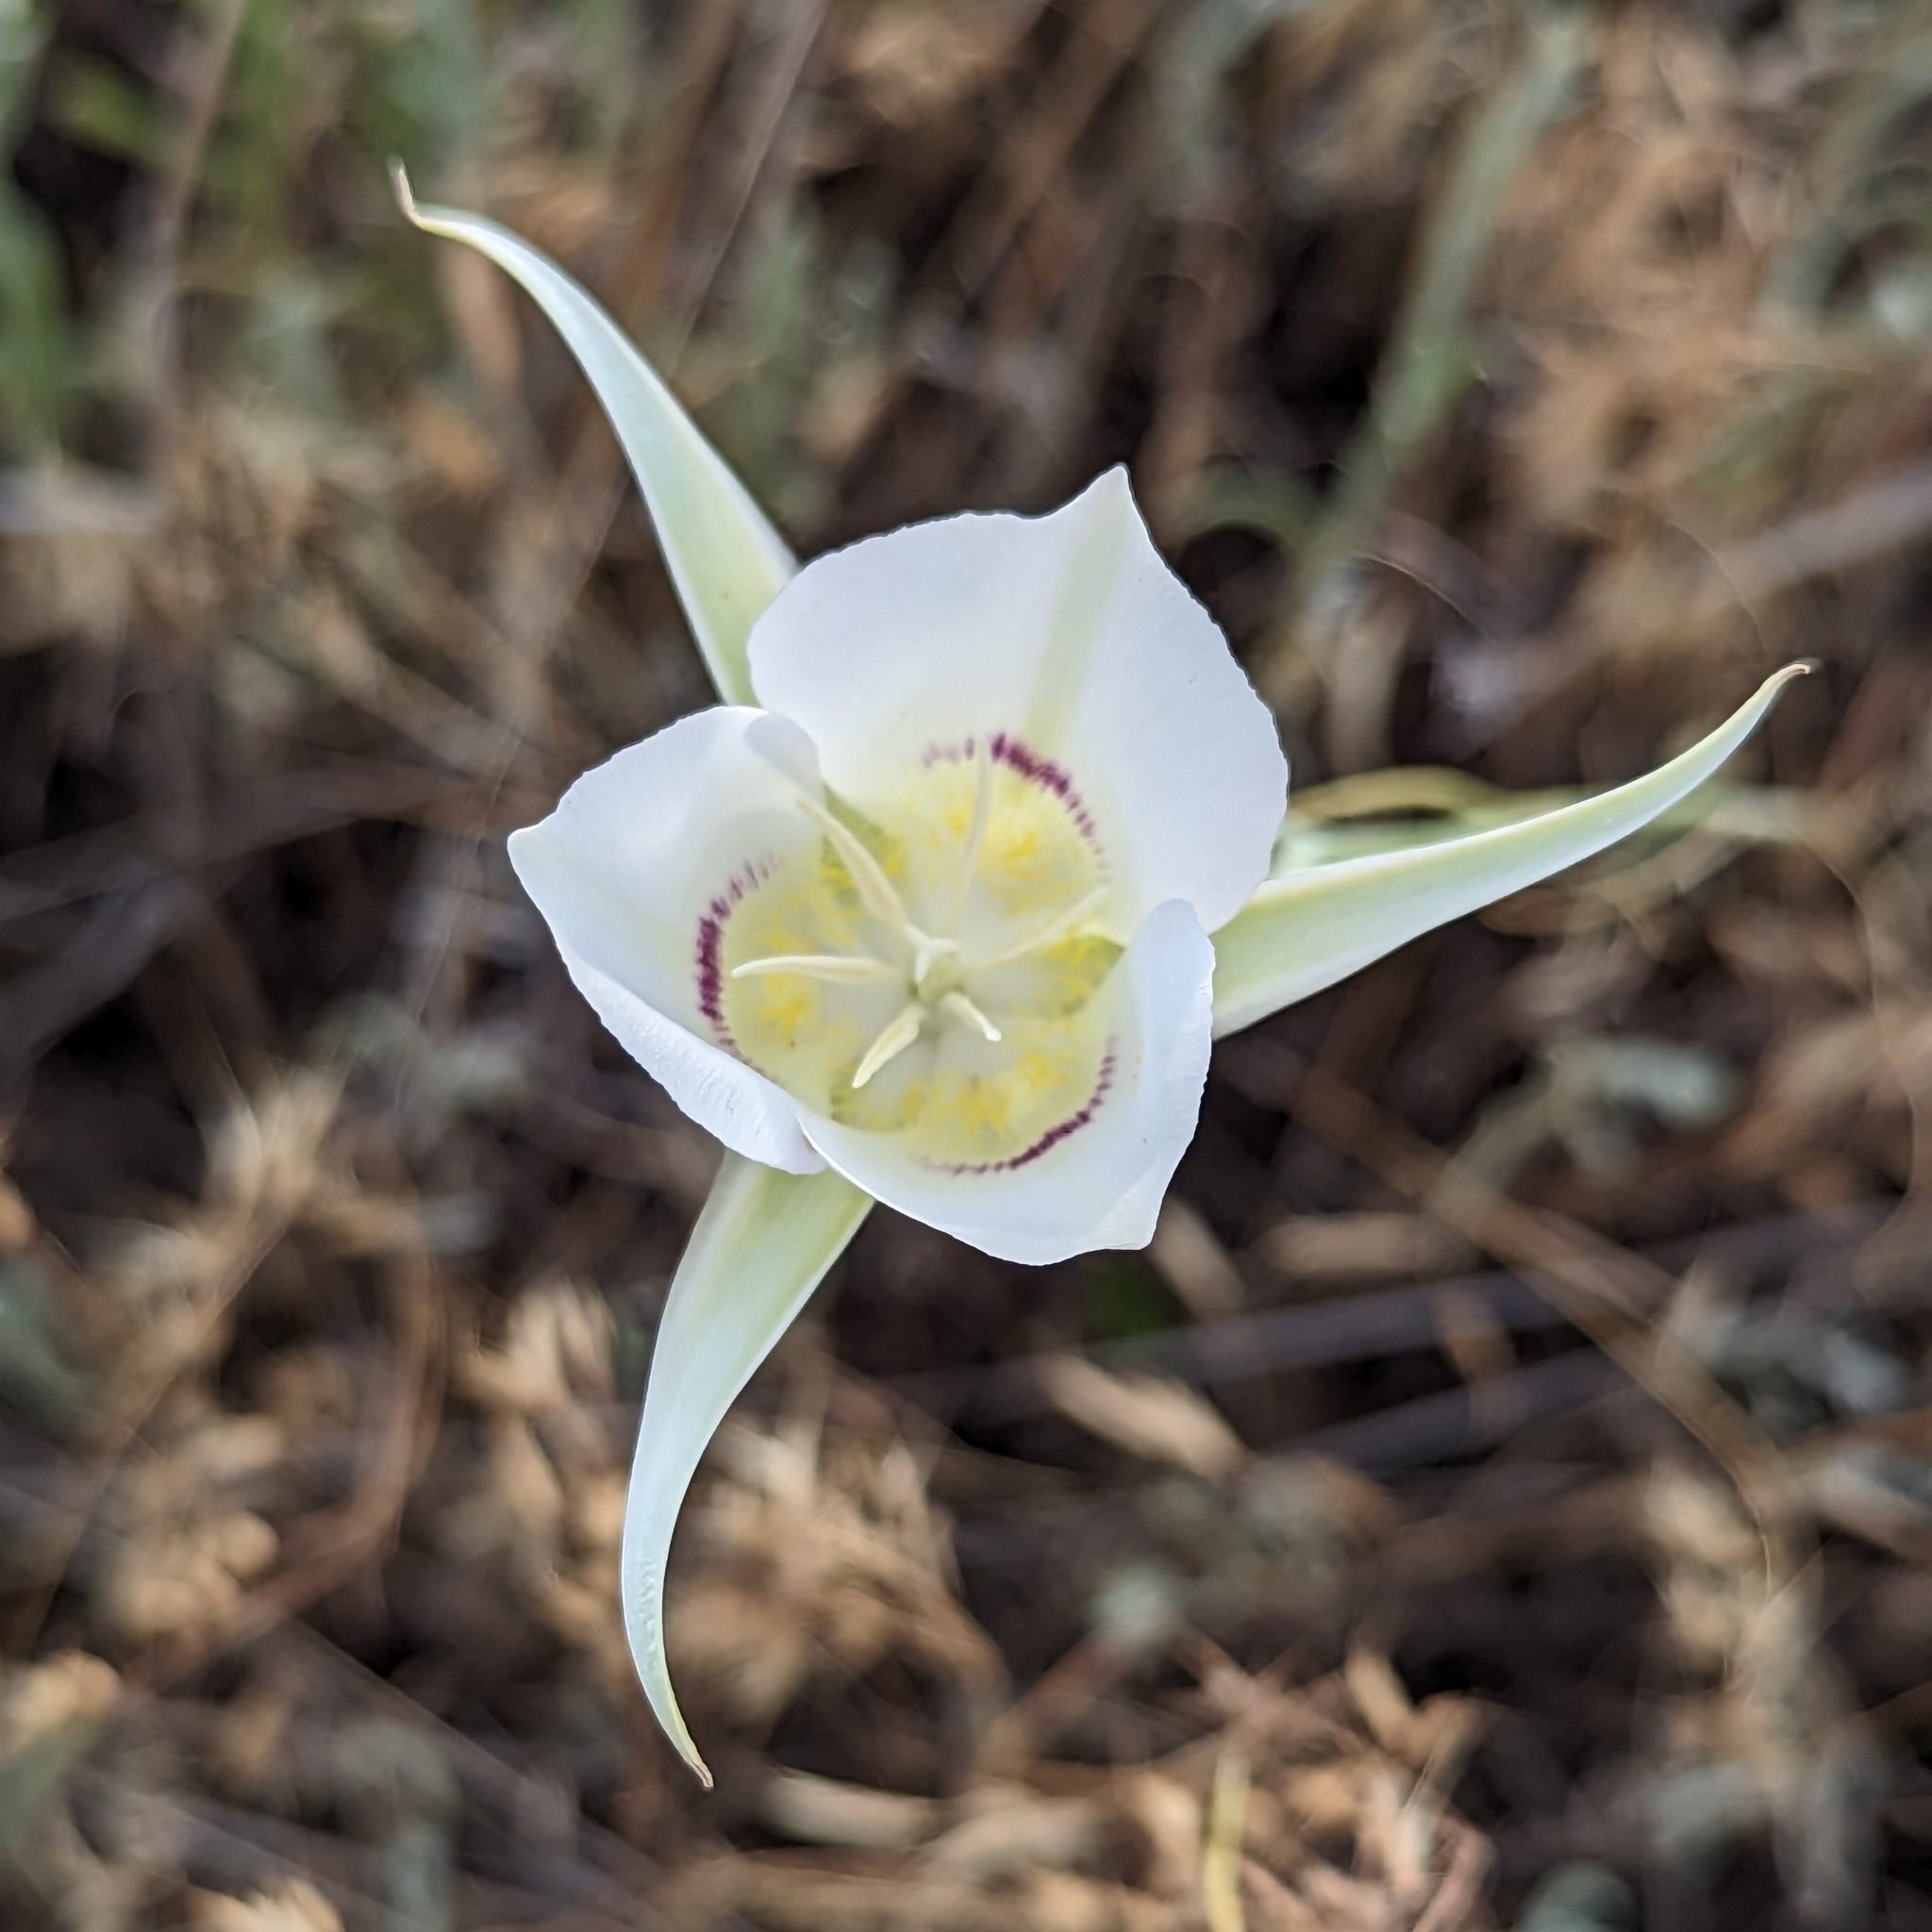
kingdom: Plantae
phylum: Tracheophyta
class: Liliopsida
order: Liliales
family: Liliaceae
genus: Calochortus
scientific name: Calochortus macrocarpus
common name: Green-band mariposa lily
